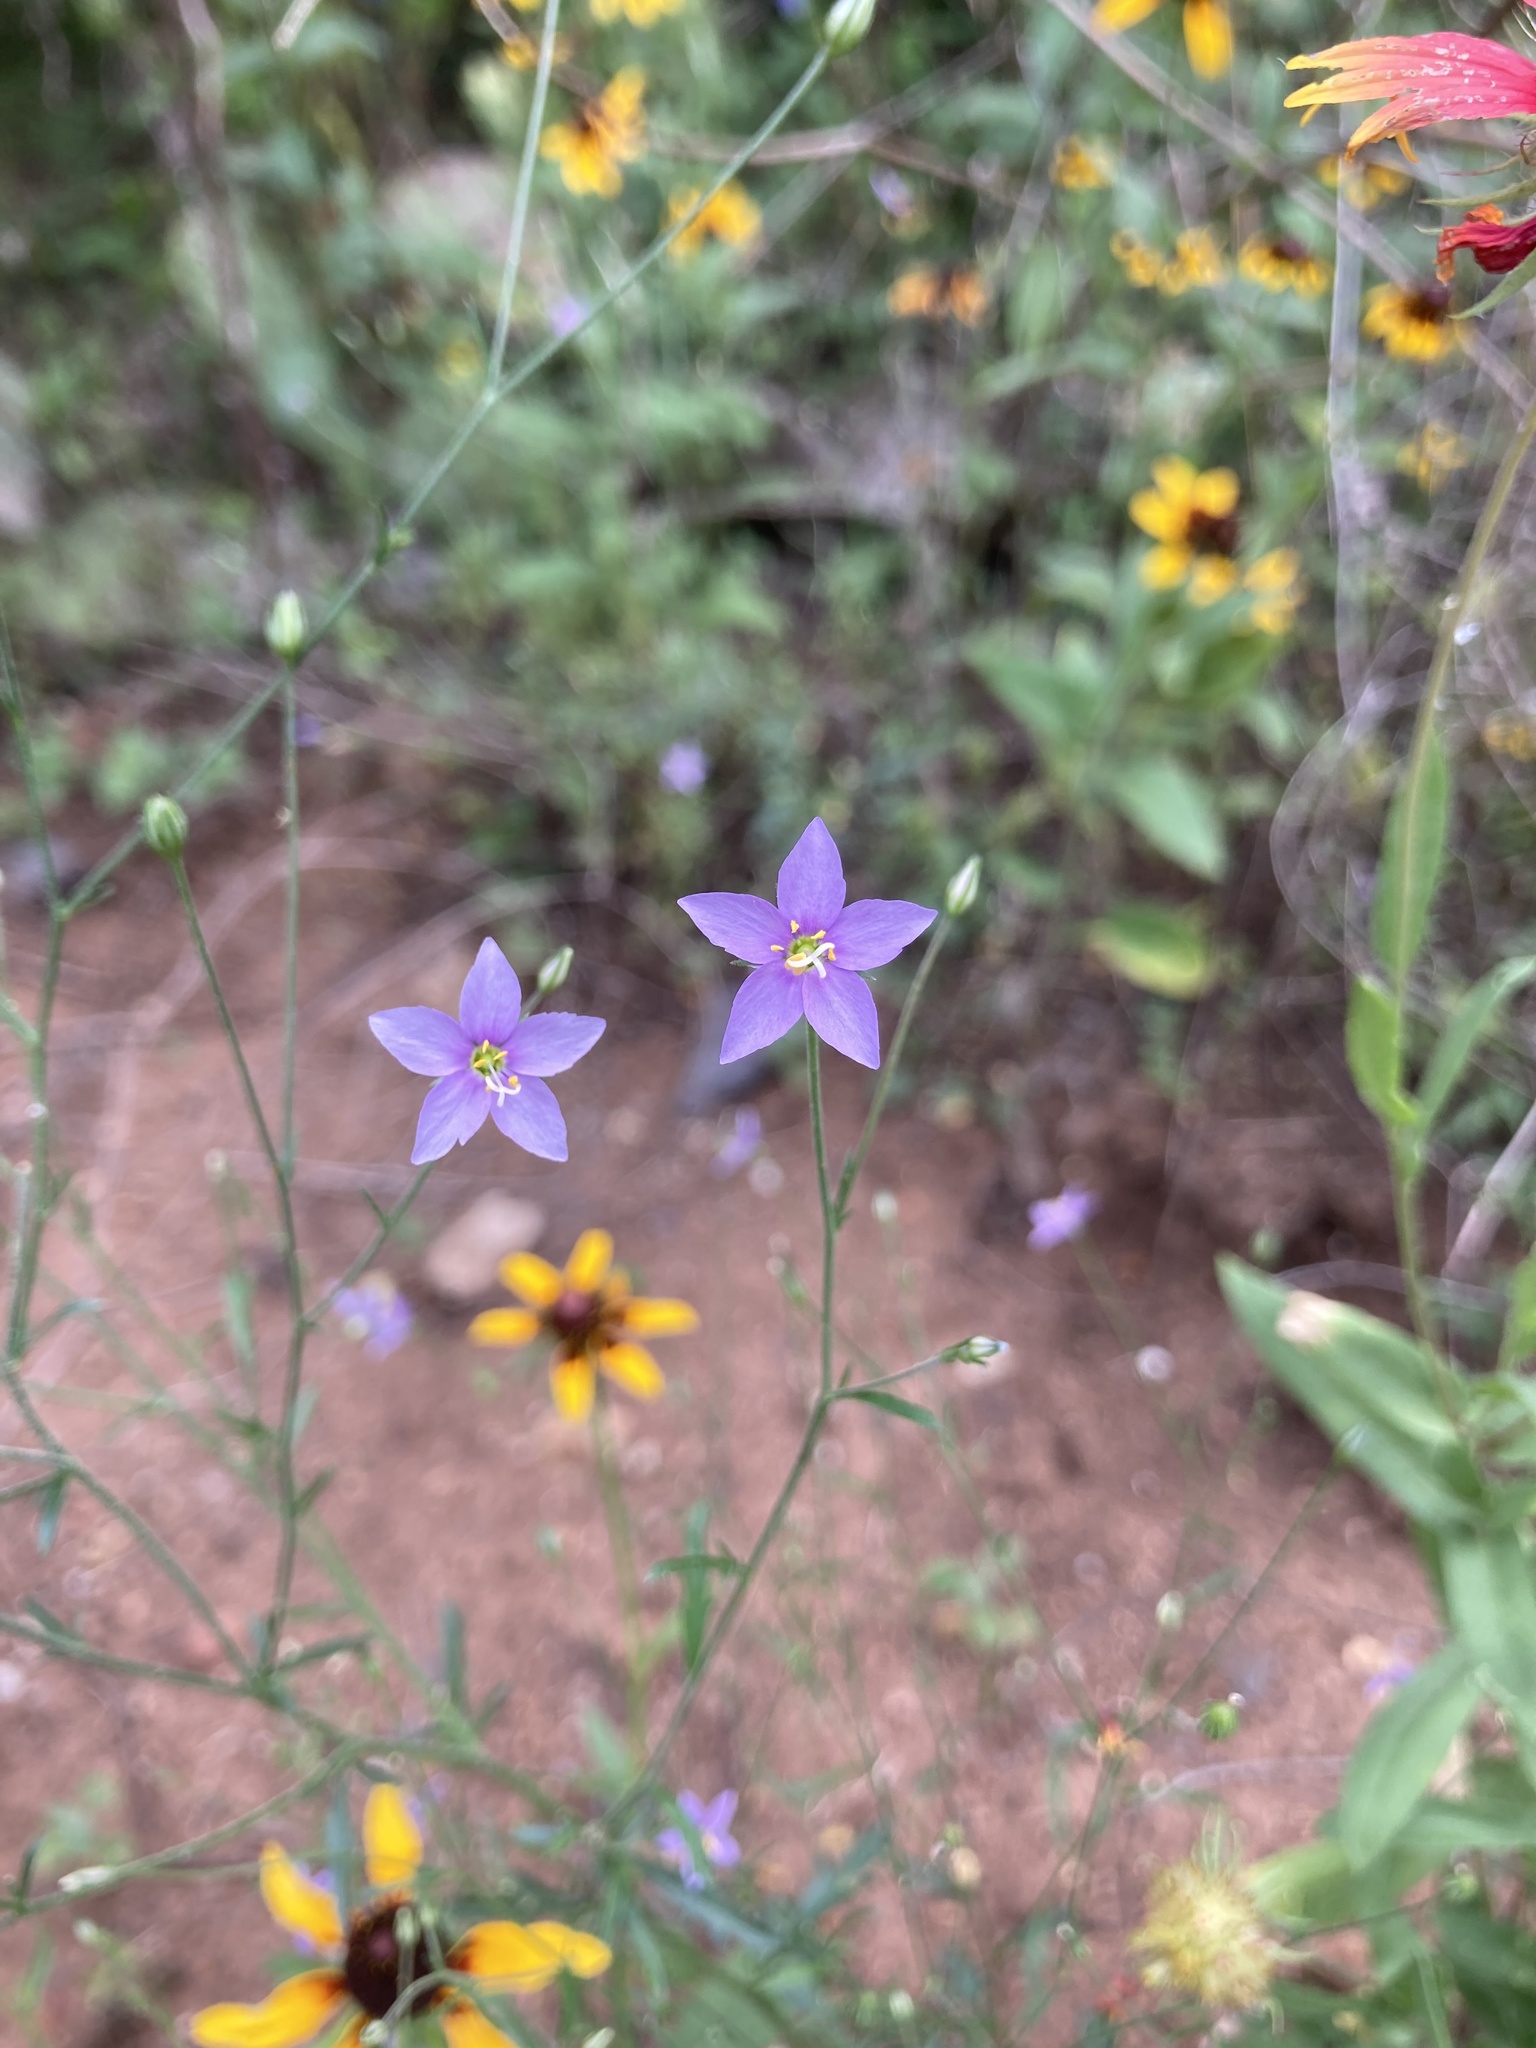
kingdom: Plantae
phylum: Tracheophyta
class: Magnoliopsida
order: Ericales
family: Polemoniaceae
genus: Giliastrum
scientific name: Giliastrum incisum
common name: Splitleaf gilia
